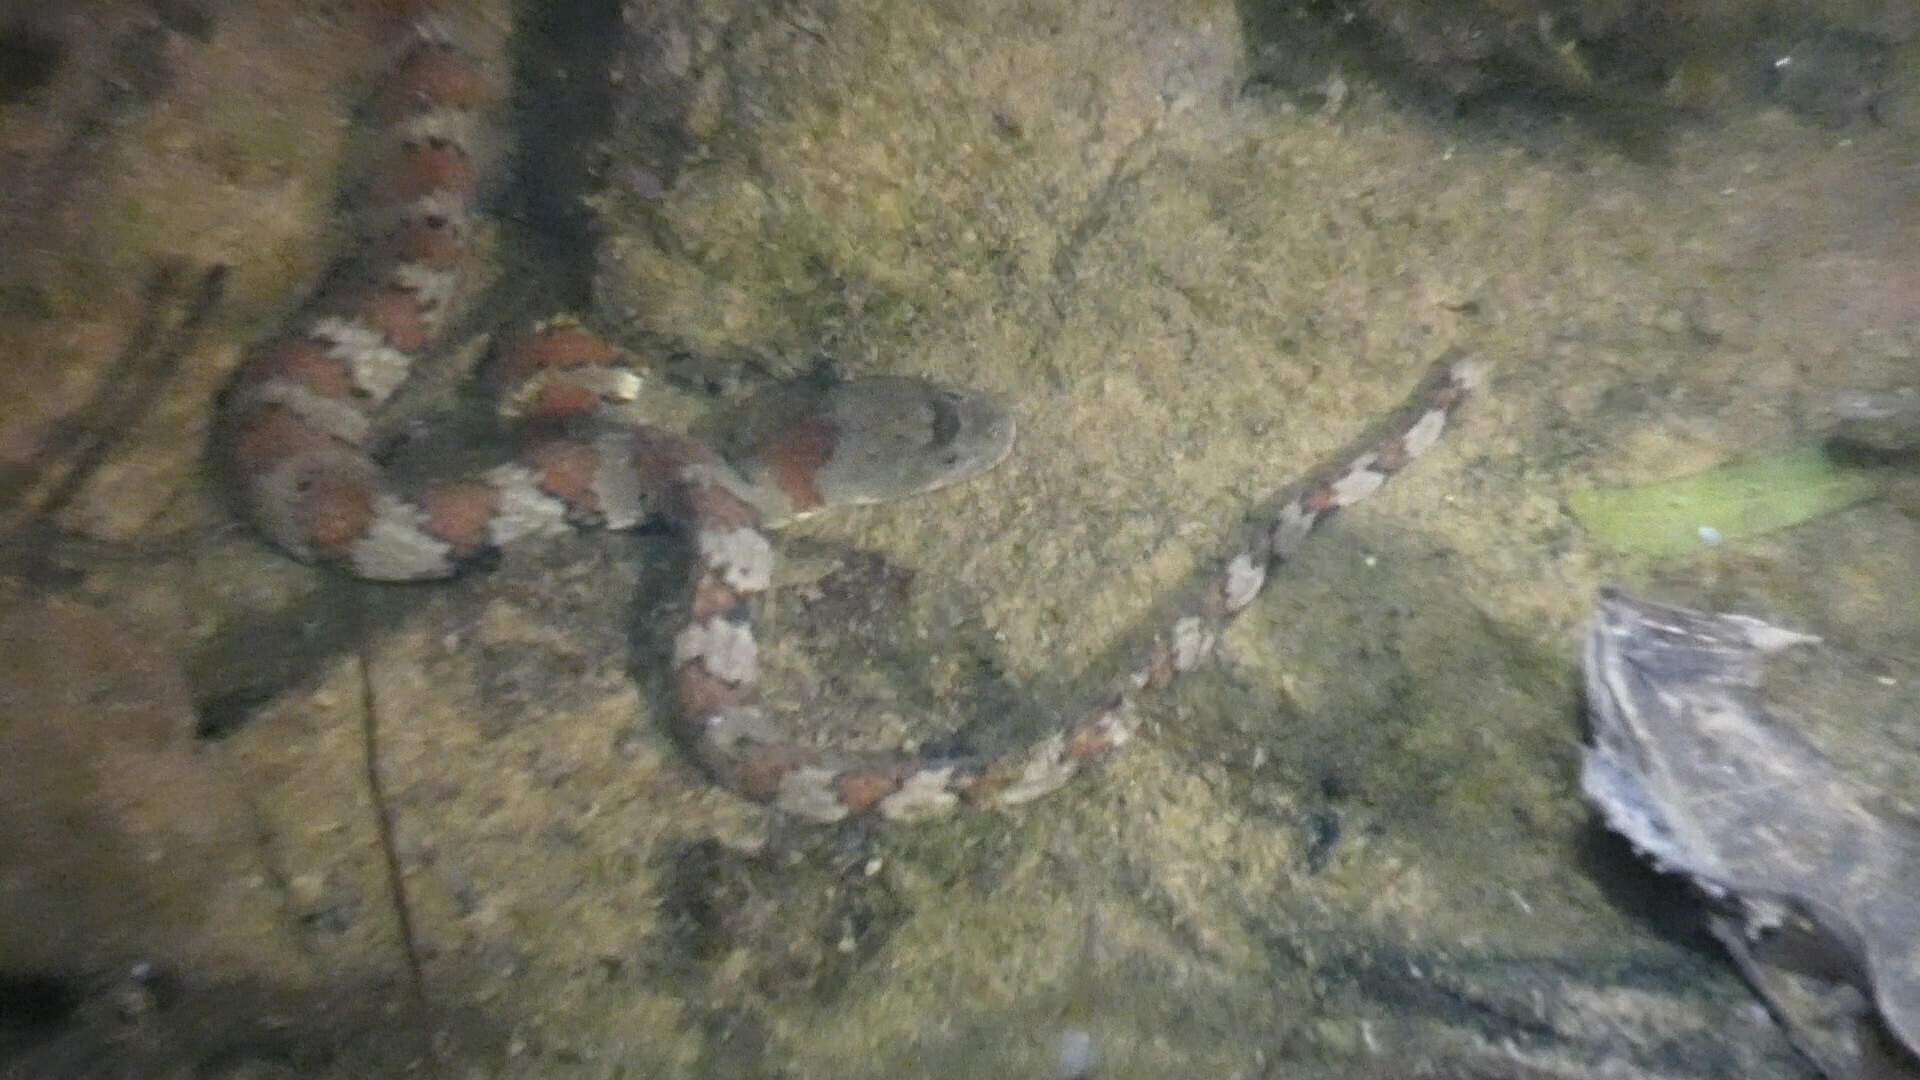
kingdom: Animalia
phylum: Chordata
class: Squamata
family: Colubridae
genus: Helicops
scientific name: Helicops angulatus
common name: Mountain keelback
